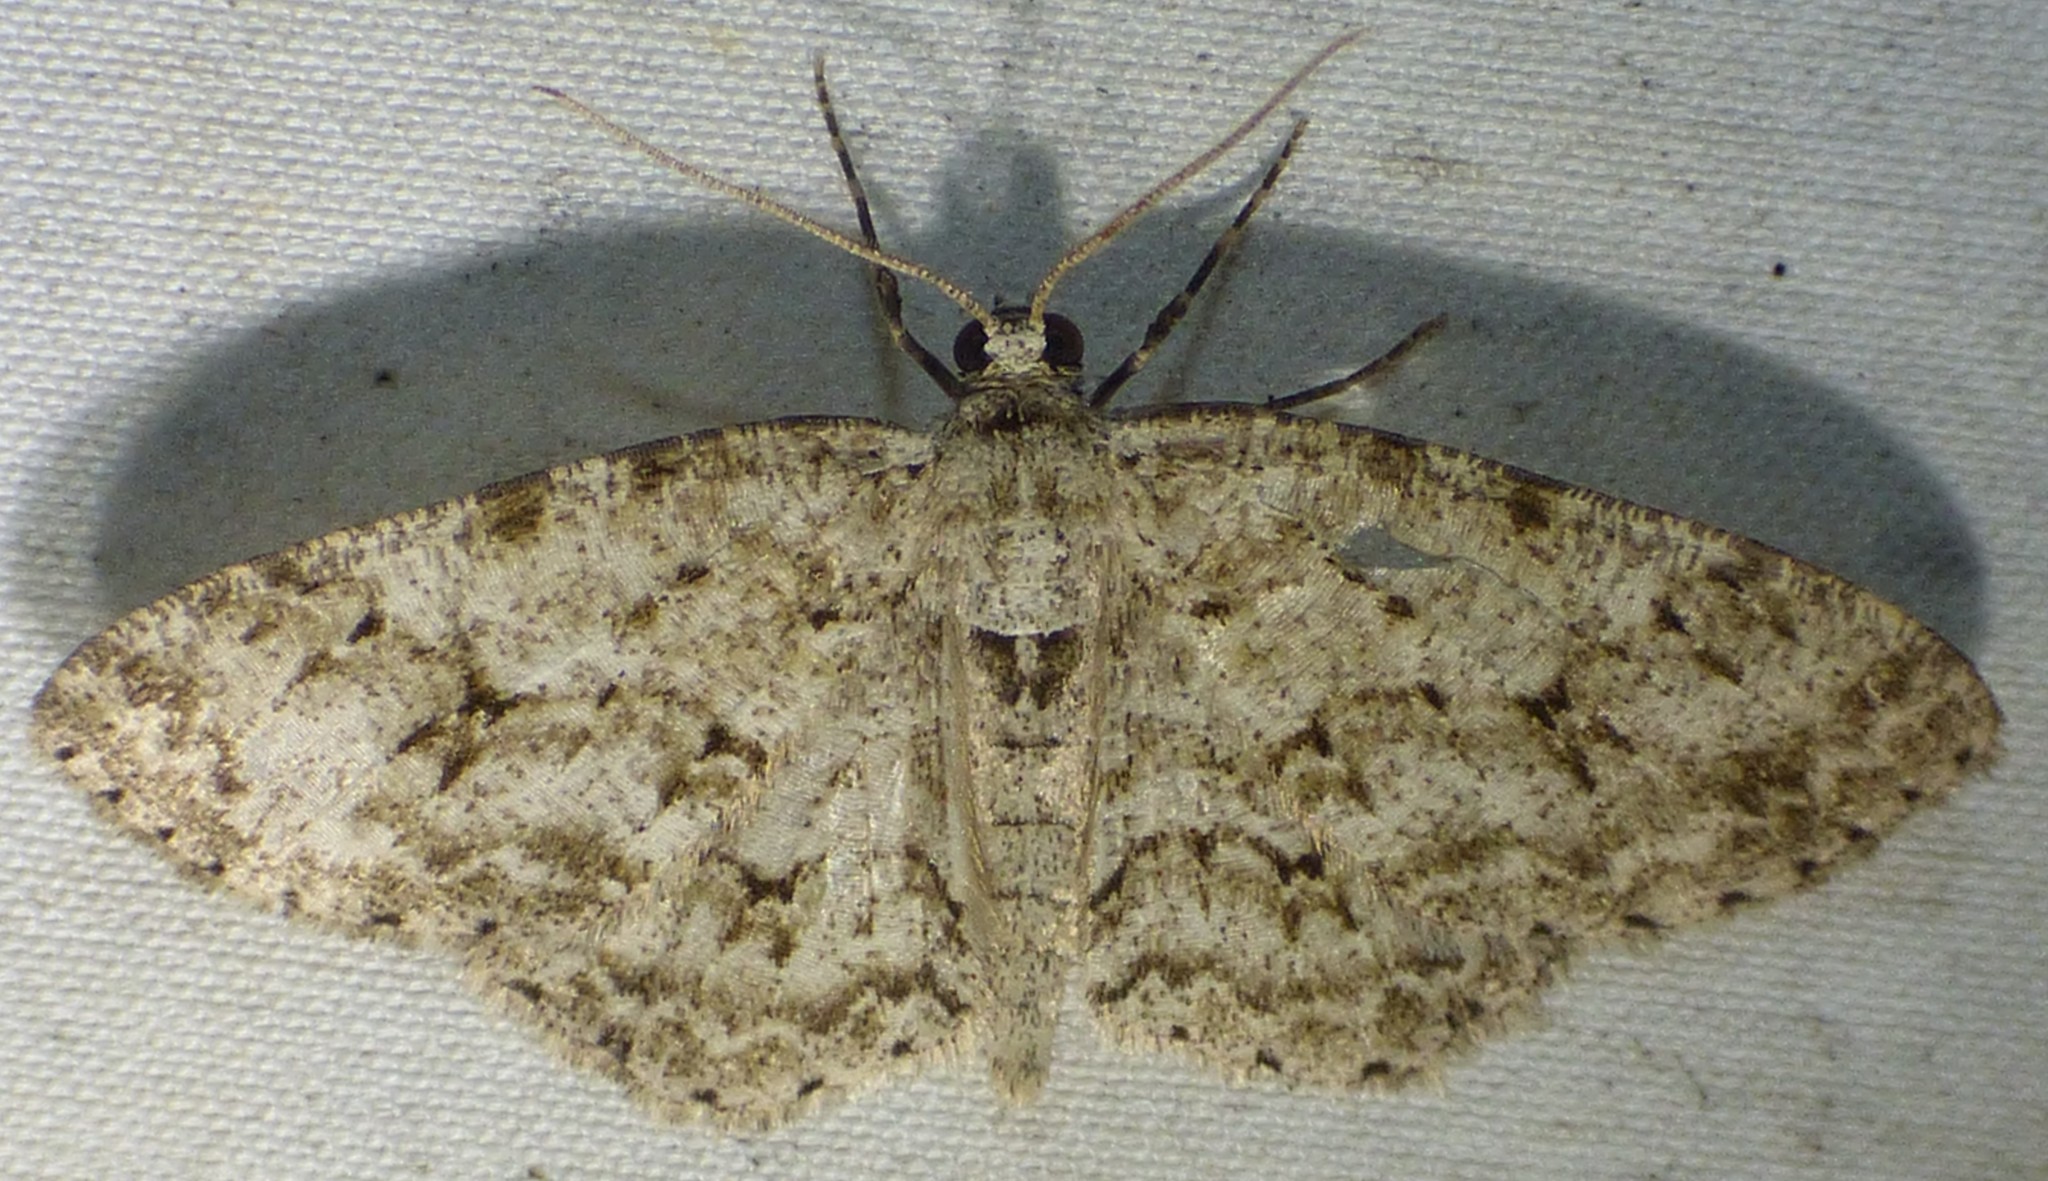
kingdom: Animalia
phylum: Arthropoda
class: Insecta
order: Lepidoptera
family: Geometridae
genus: Ectropis
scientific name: Ectropis crepuscularia
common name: Engrailed
